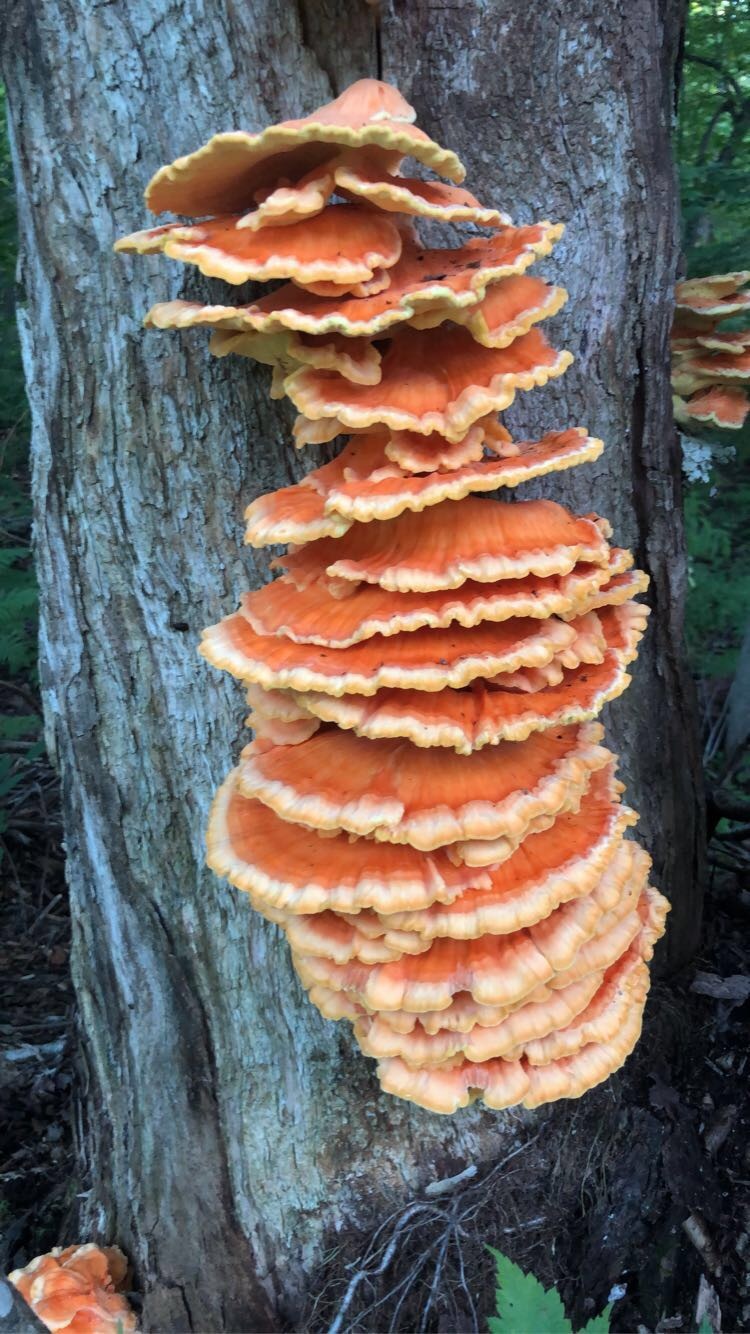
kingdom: Fungi
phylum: Basidiomycota
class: Agaricomycetes
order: Polyporales
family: Laetiporaceae
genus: Laetiporus
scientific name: Laetiporus sulphureus
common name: Chicken of the woods
